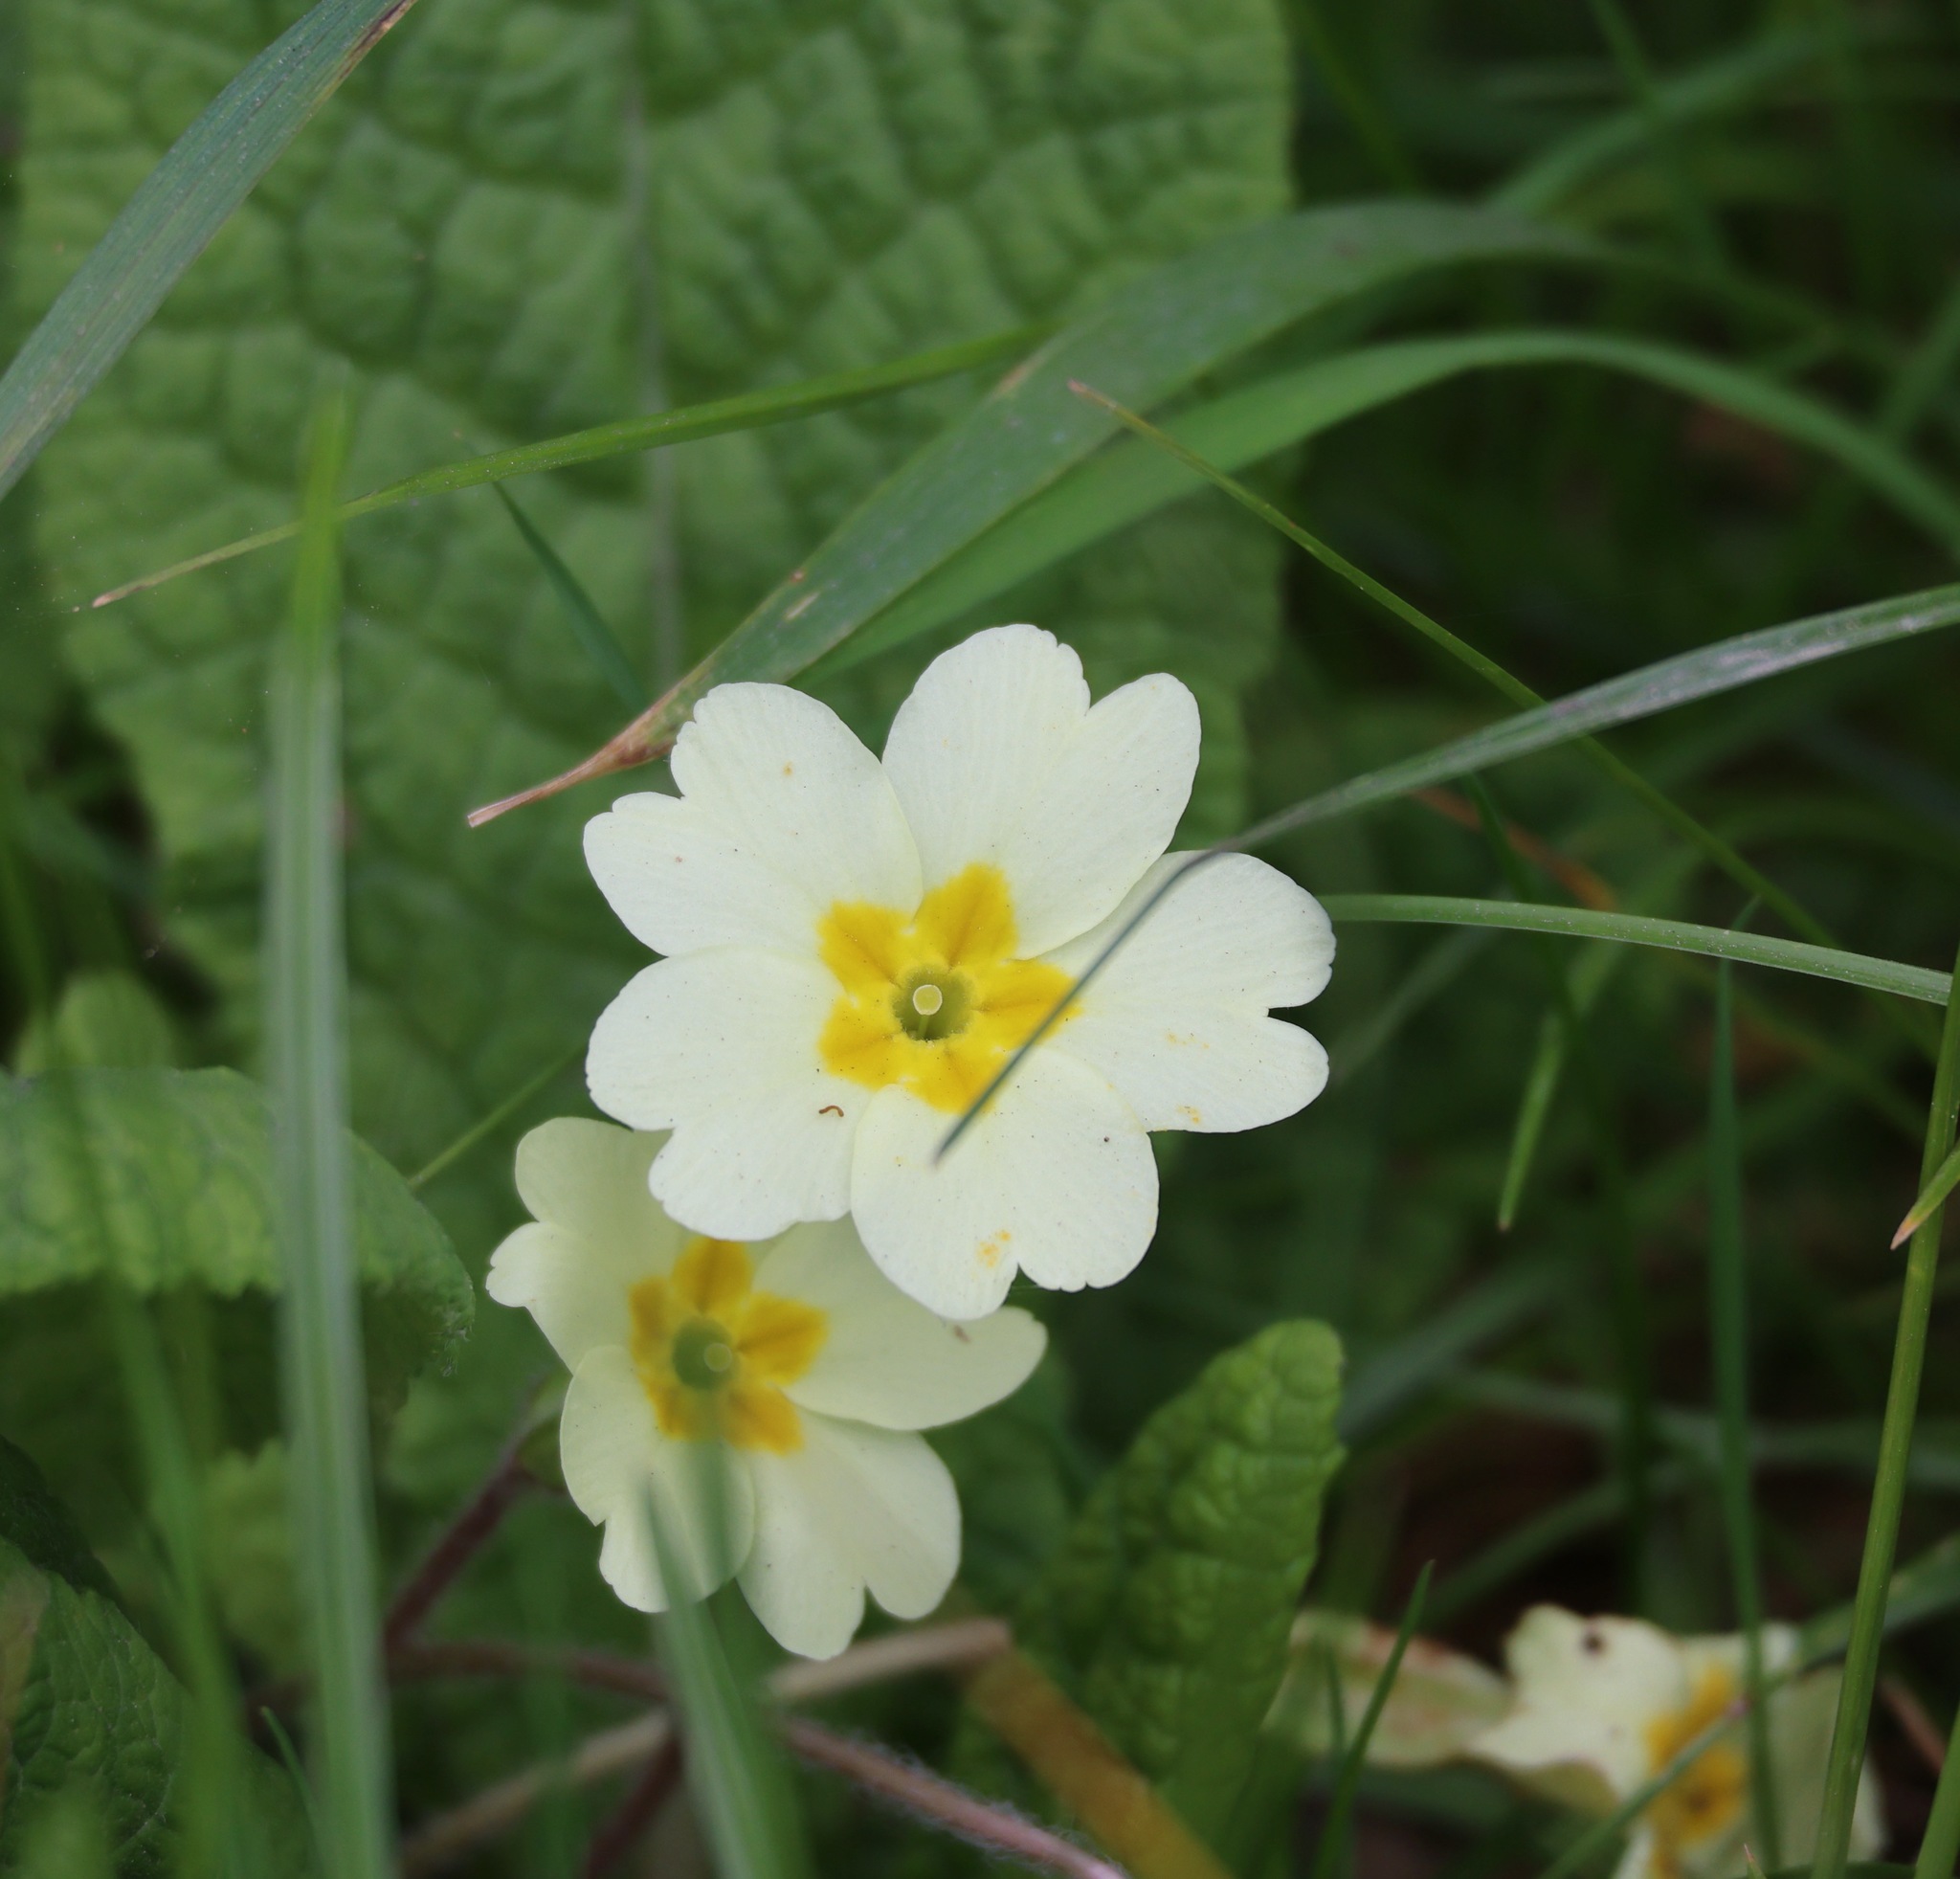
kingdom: Plantae
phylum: Tracheophyta
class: Magnoliopsida
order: Ericales
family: Primulaceae
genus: Primula
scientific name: Primula vulgaris
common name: Primrose
